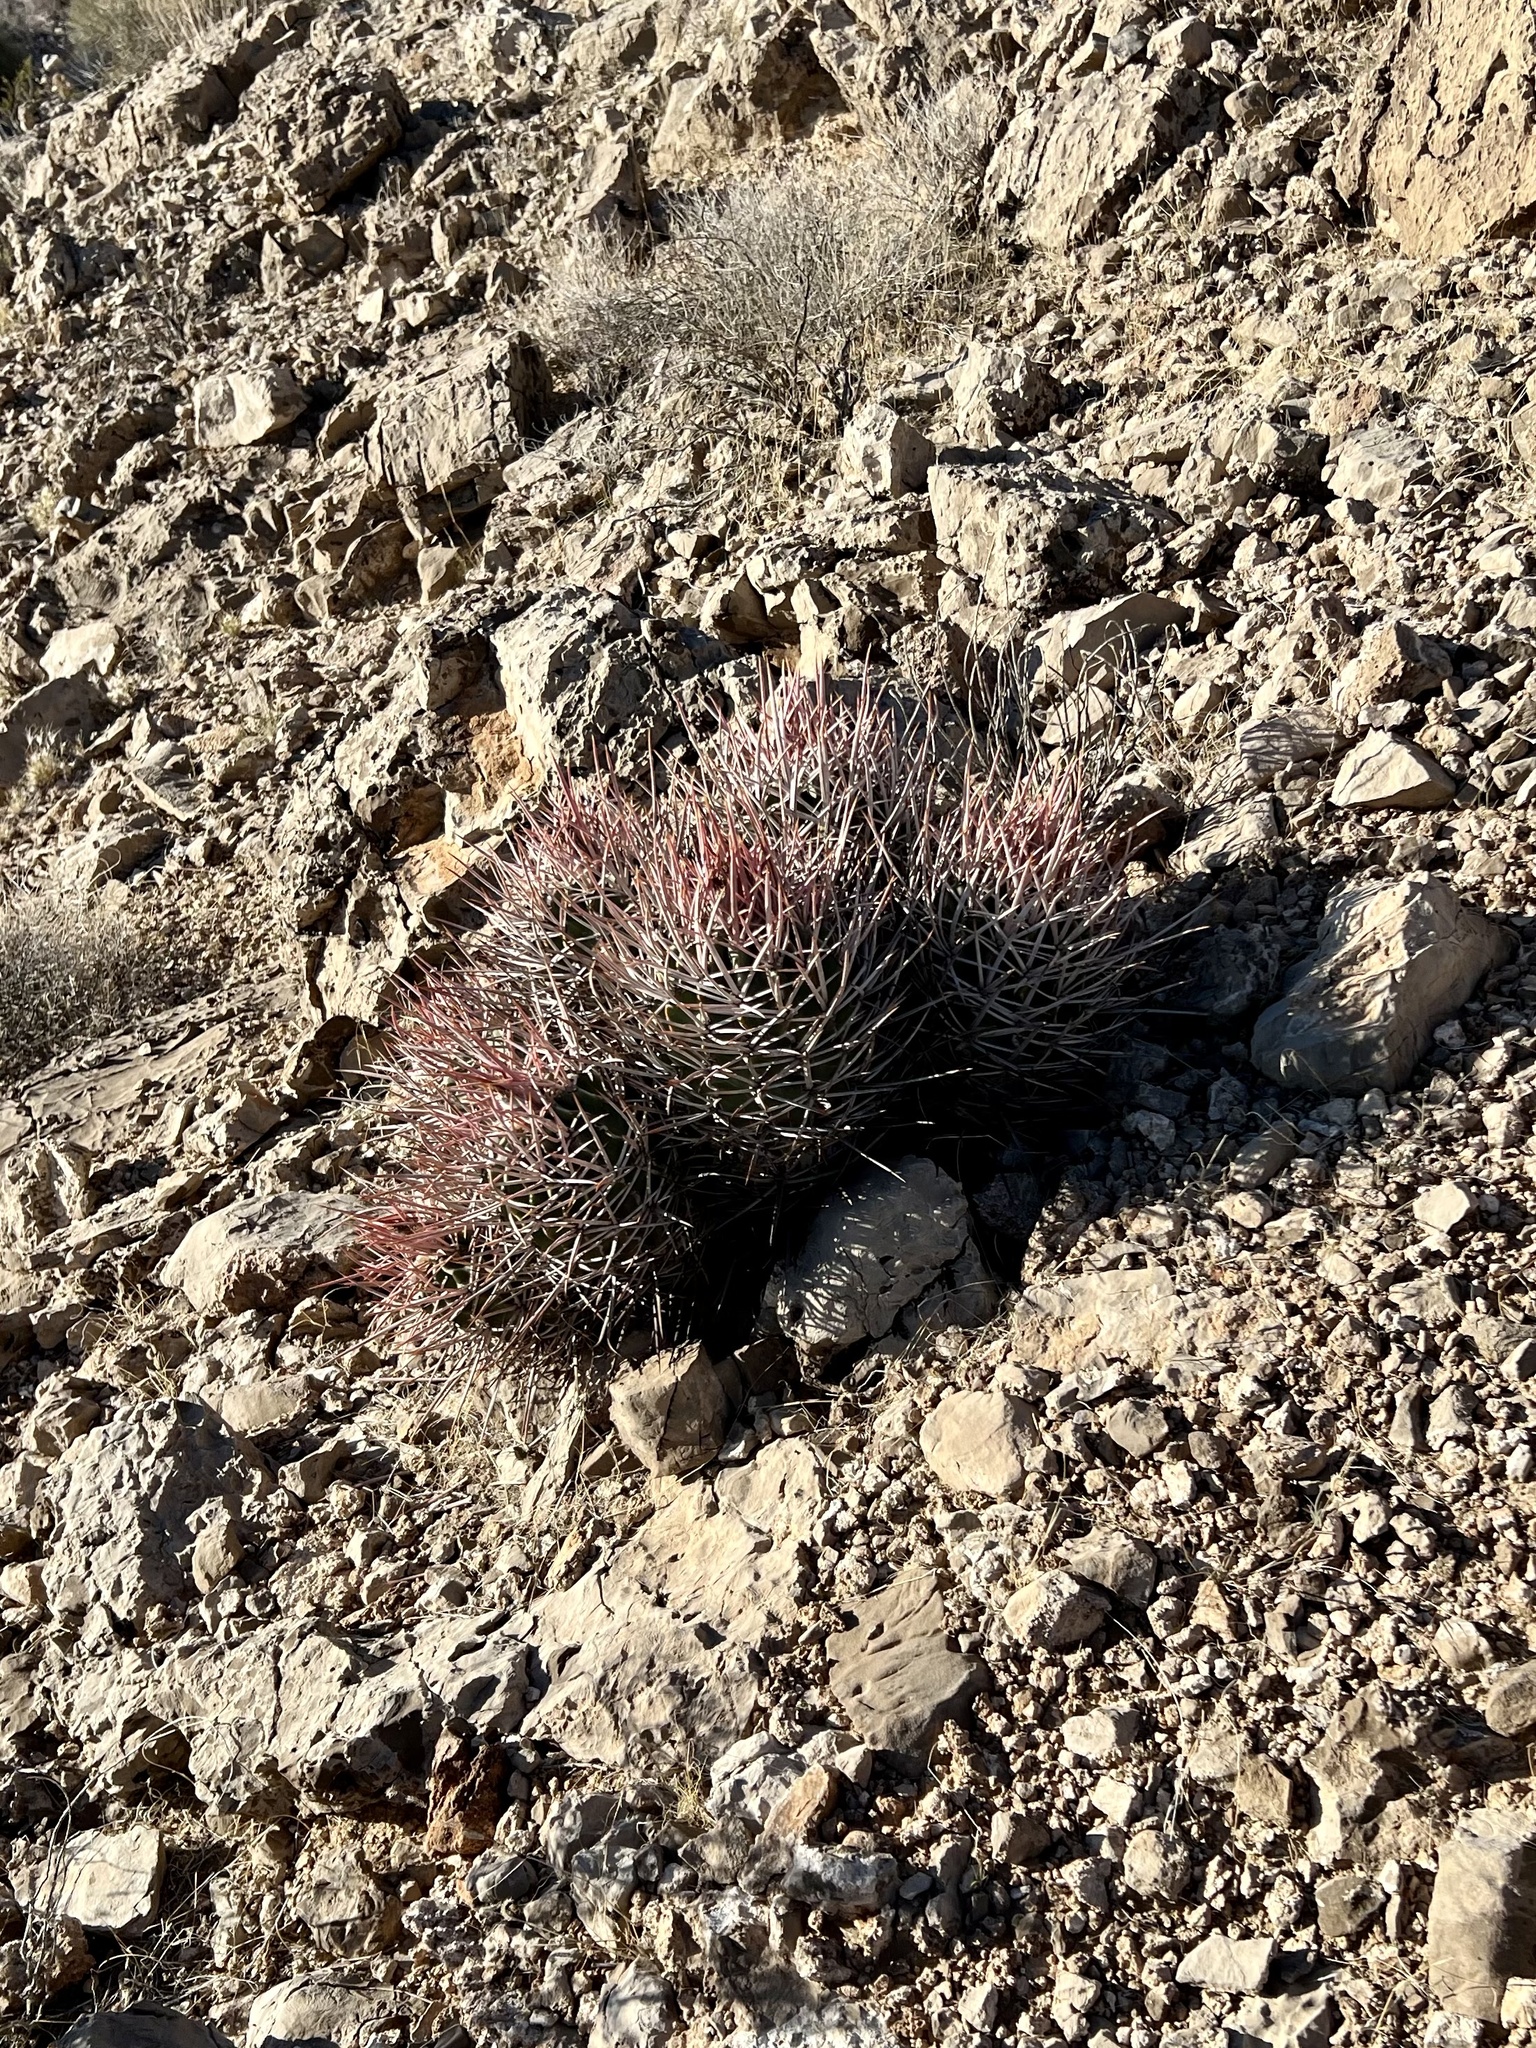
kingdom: Plantae
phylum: Tracheophyta
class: Magnoliopsida
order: Caryophyllales
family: Cactaceae
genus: Echinocactus
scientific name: Echinocactus polycephalus
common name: Cottontop cactus
